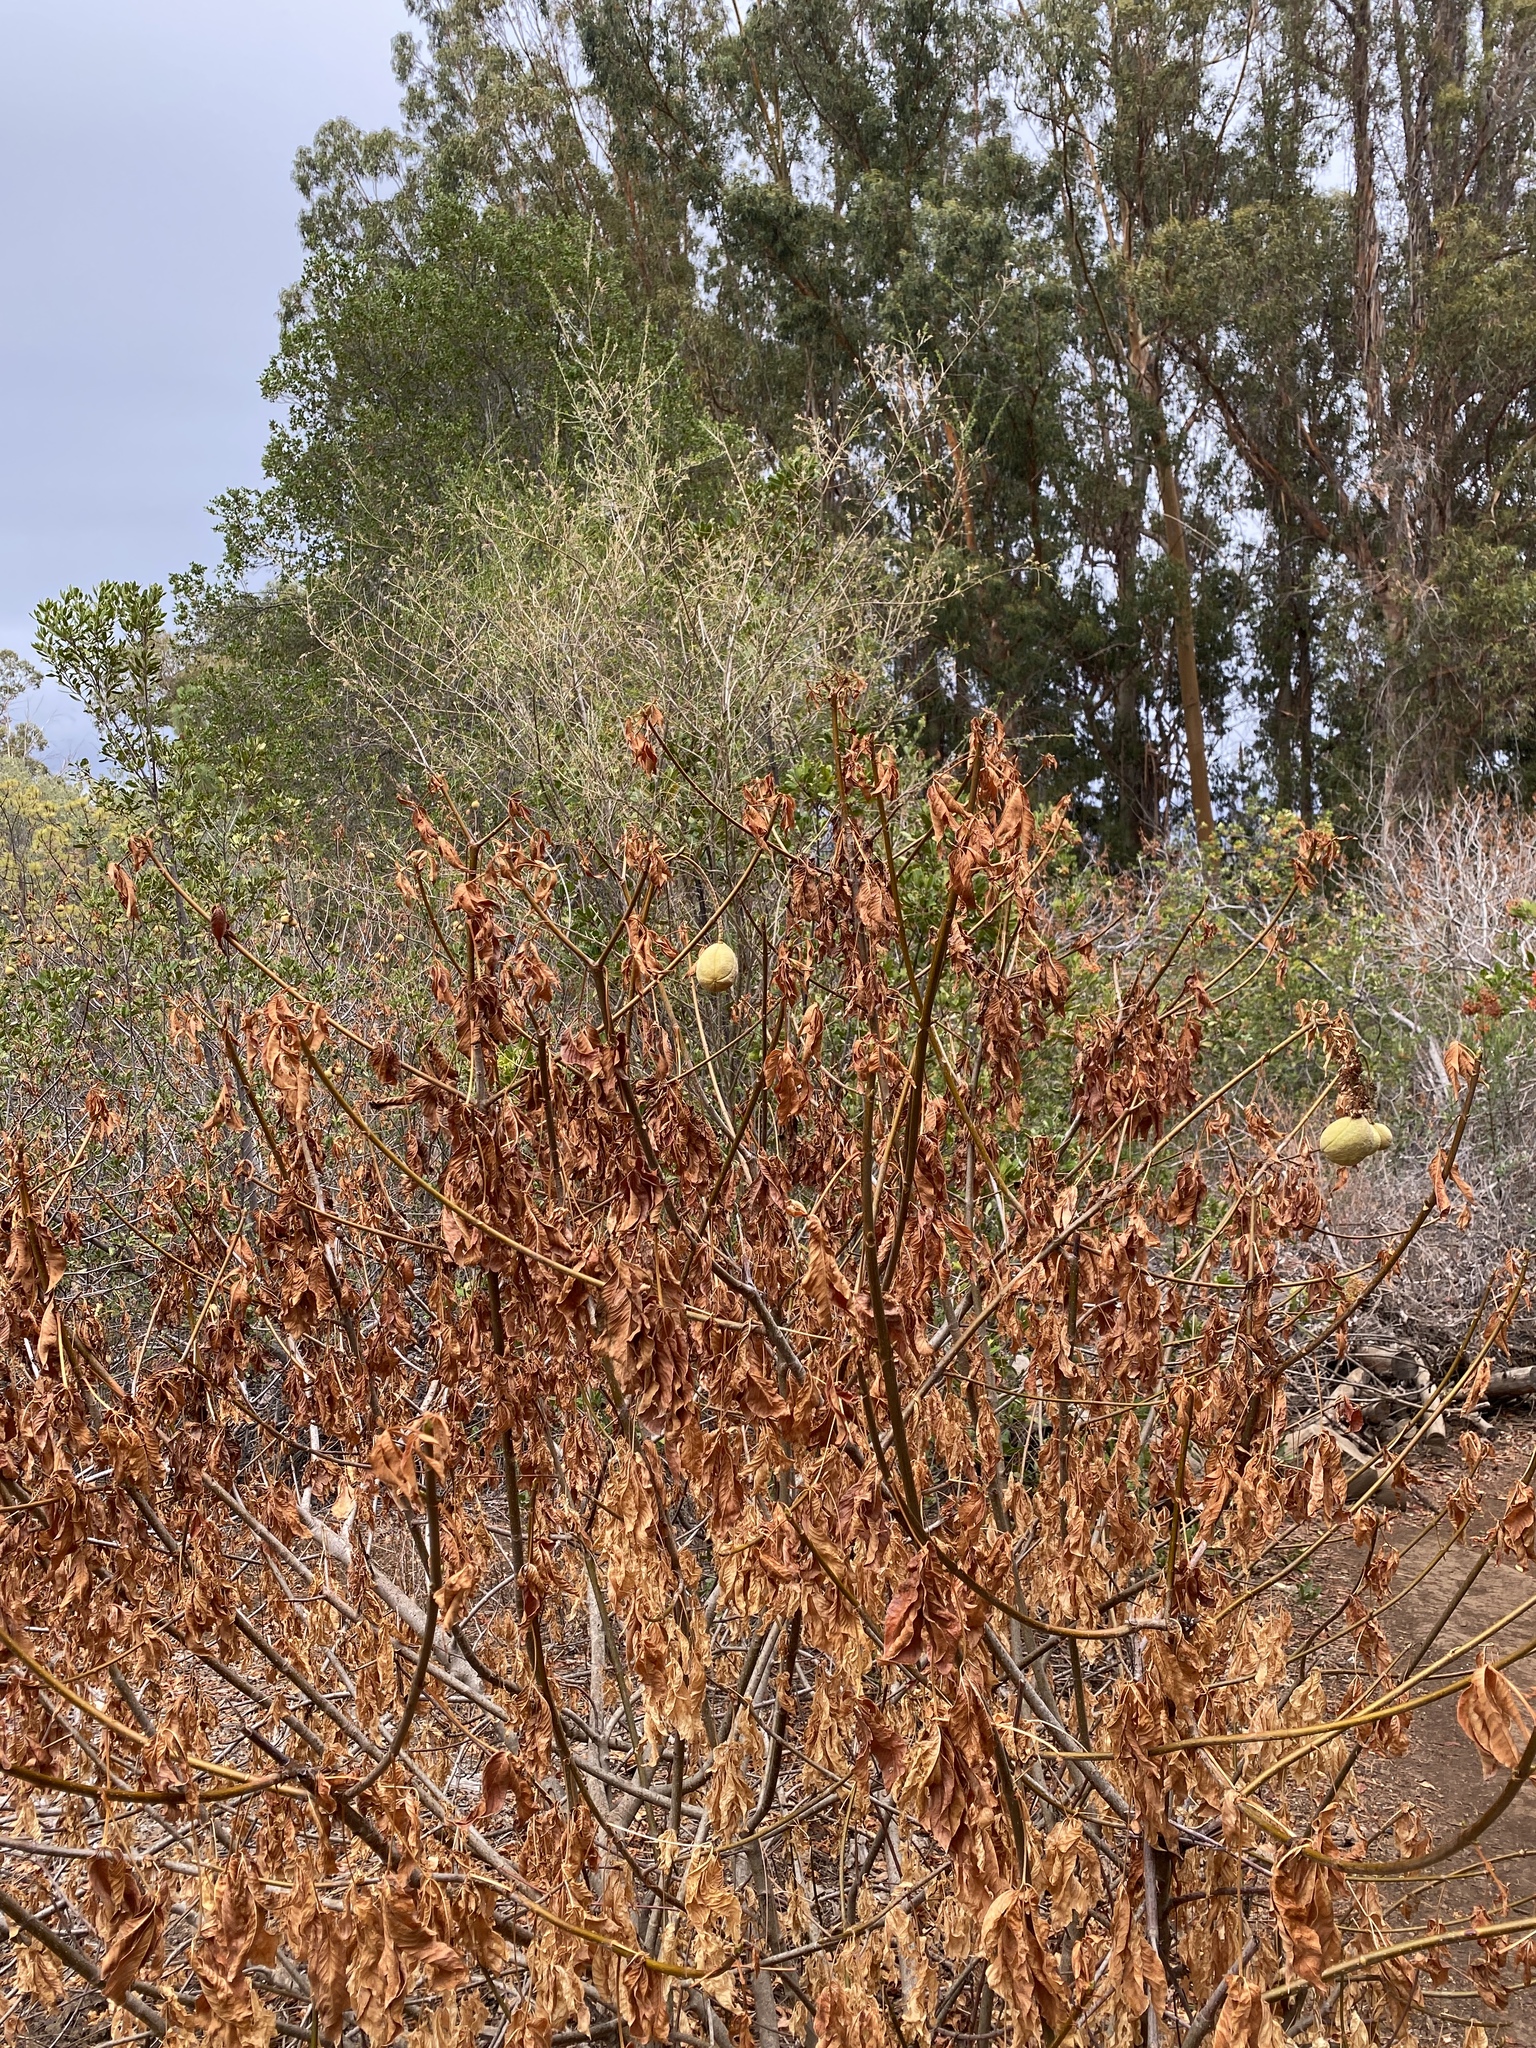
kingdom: Plantae
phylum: Tracheophyta
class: Magnoliopsida
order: Sapindales
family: Sapindaceae
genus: Aesculus
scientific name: Aesculus californica
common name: California buckeye
